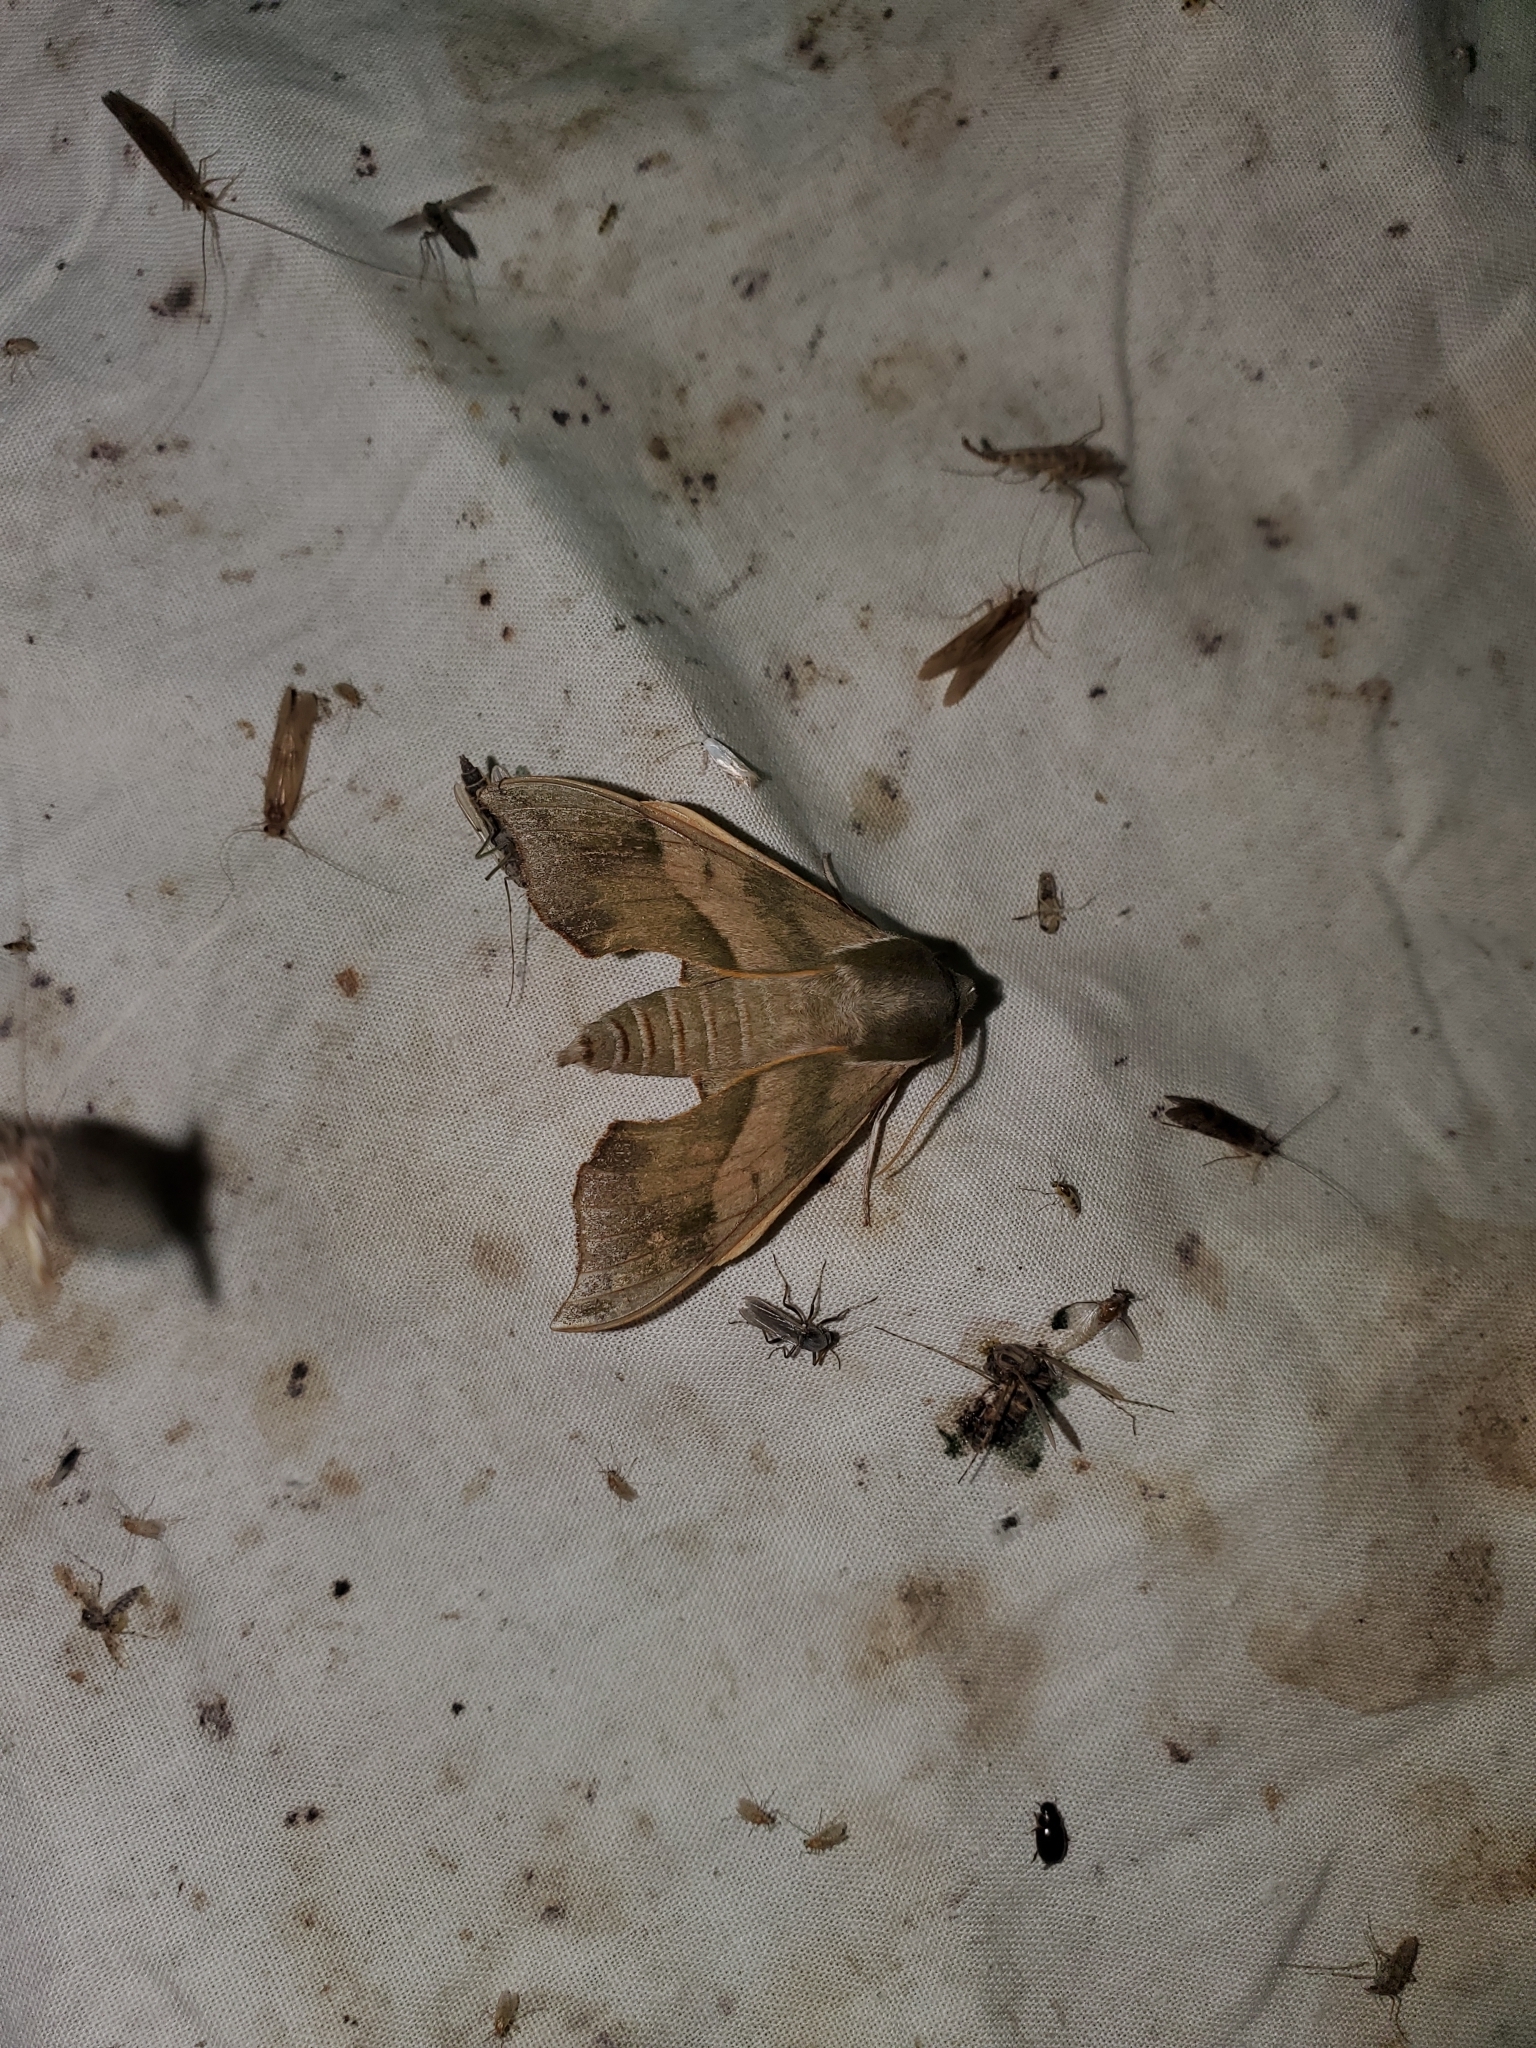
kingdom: Animalia
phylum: Arthropoda
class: Insecta
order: Lepidoptera
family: Sphingidae
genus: Darapsa
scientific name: Darapsa myron
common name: Hog sphinx
